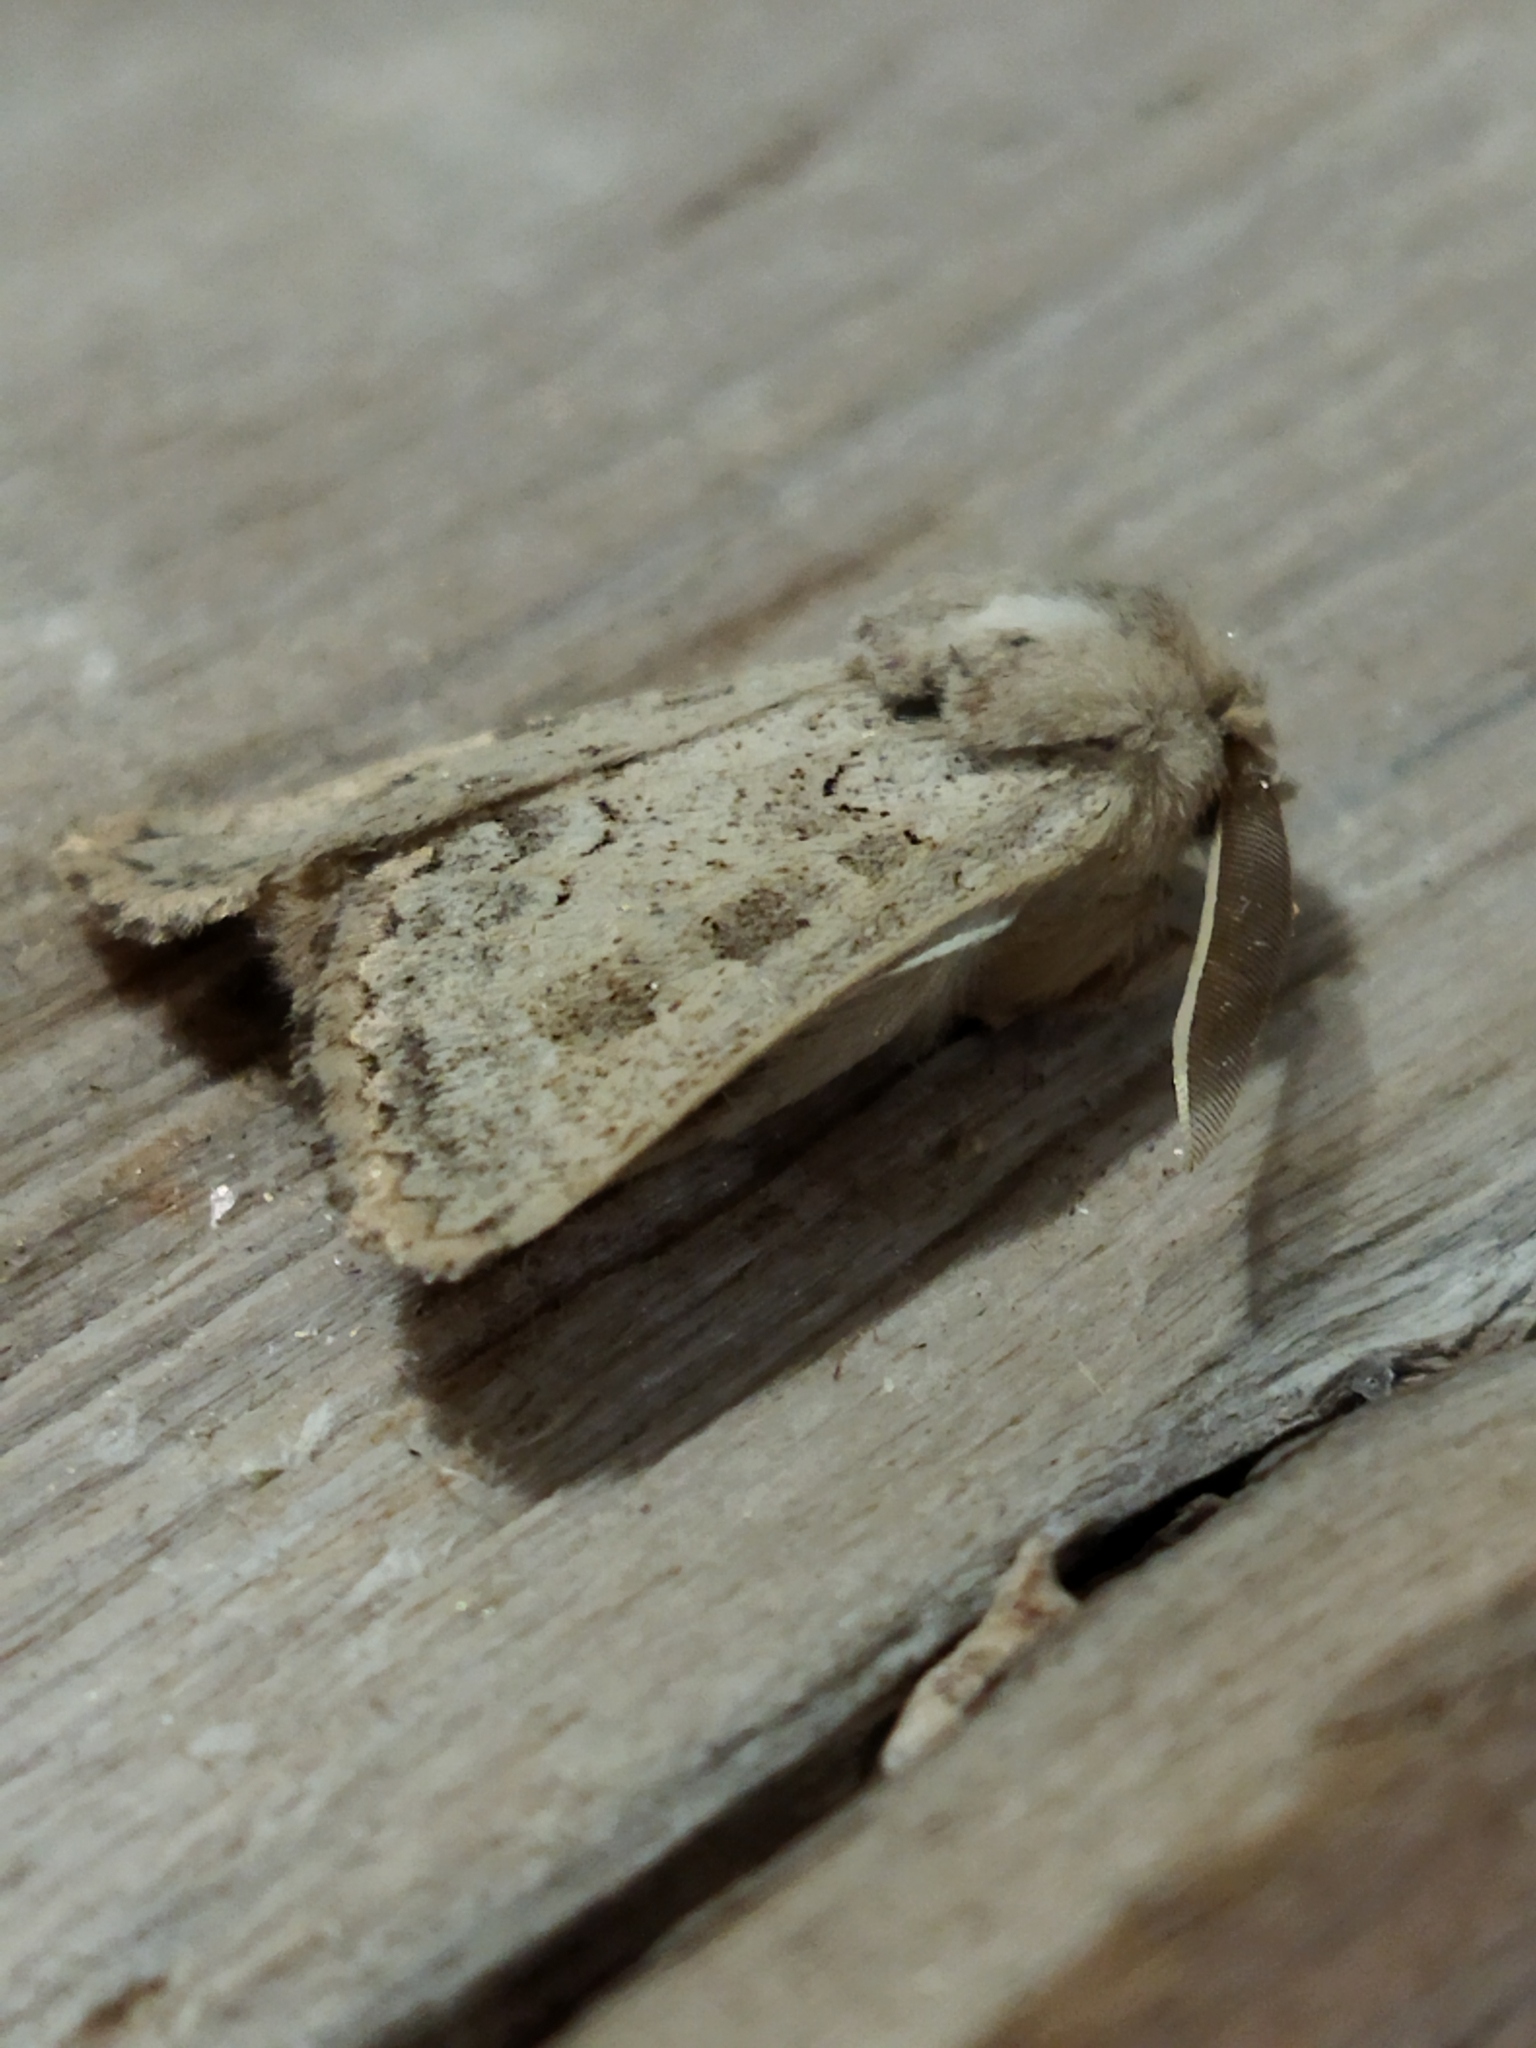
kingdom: Animalia
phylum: Arthropoda
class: Insecta
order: Lepidoptera
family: Noctuidae
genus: Episema
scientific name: Episema lederi
